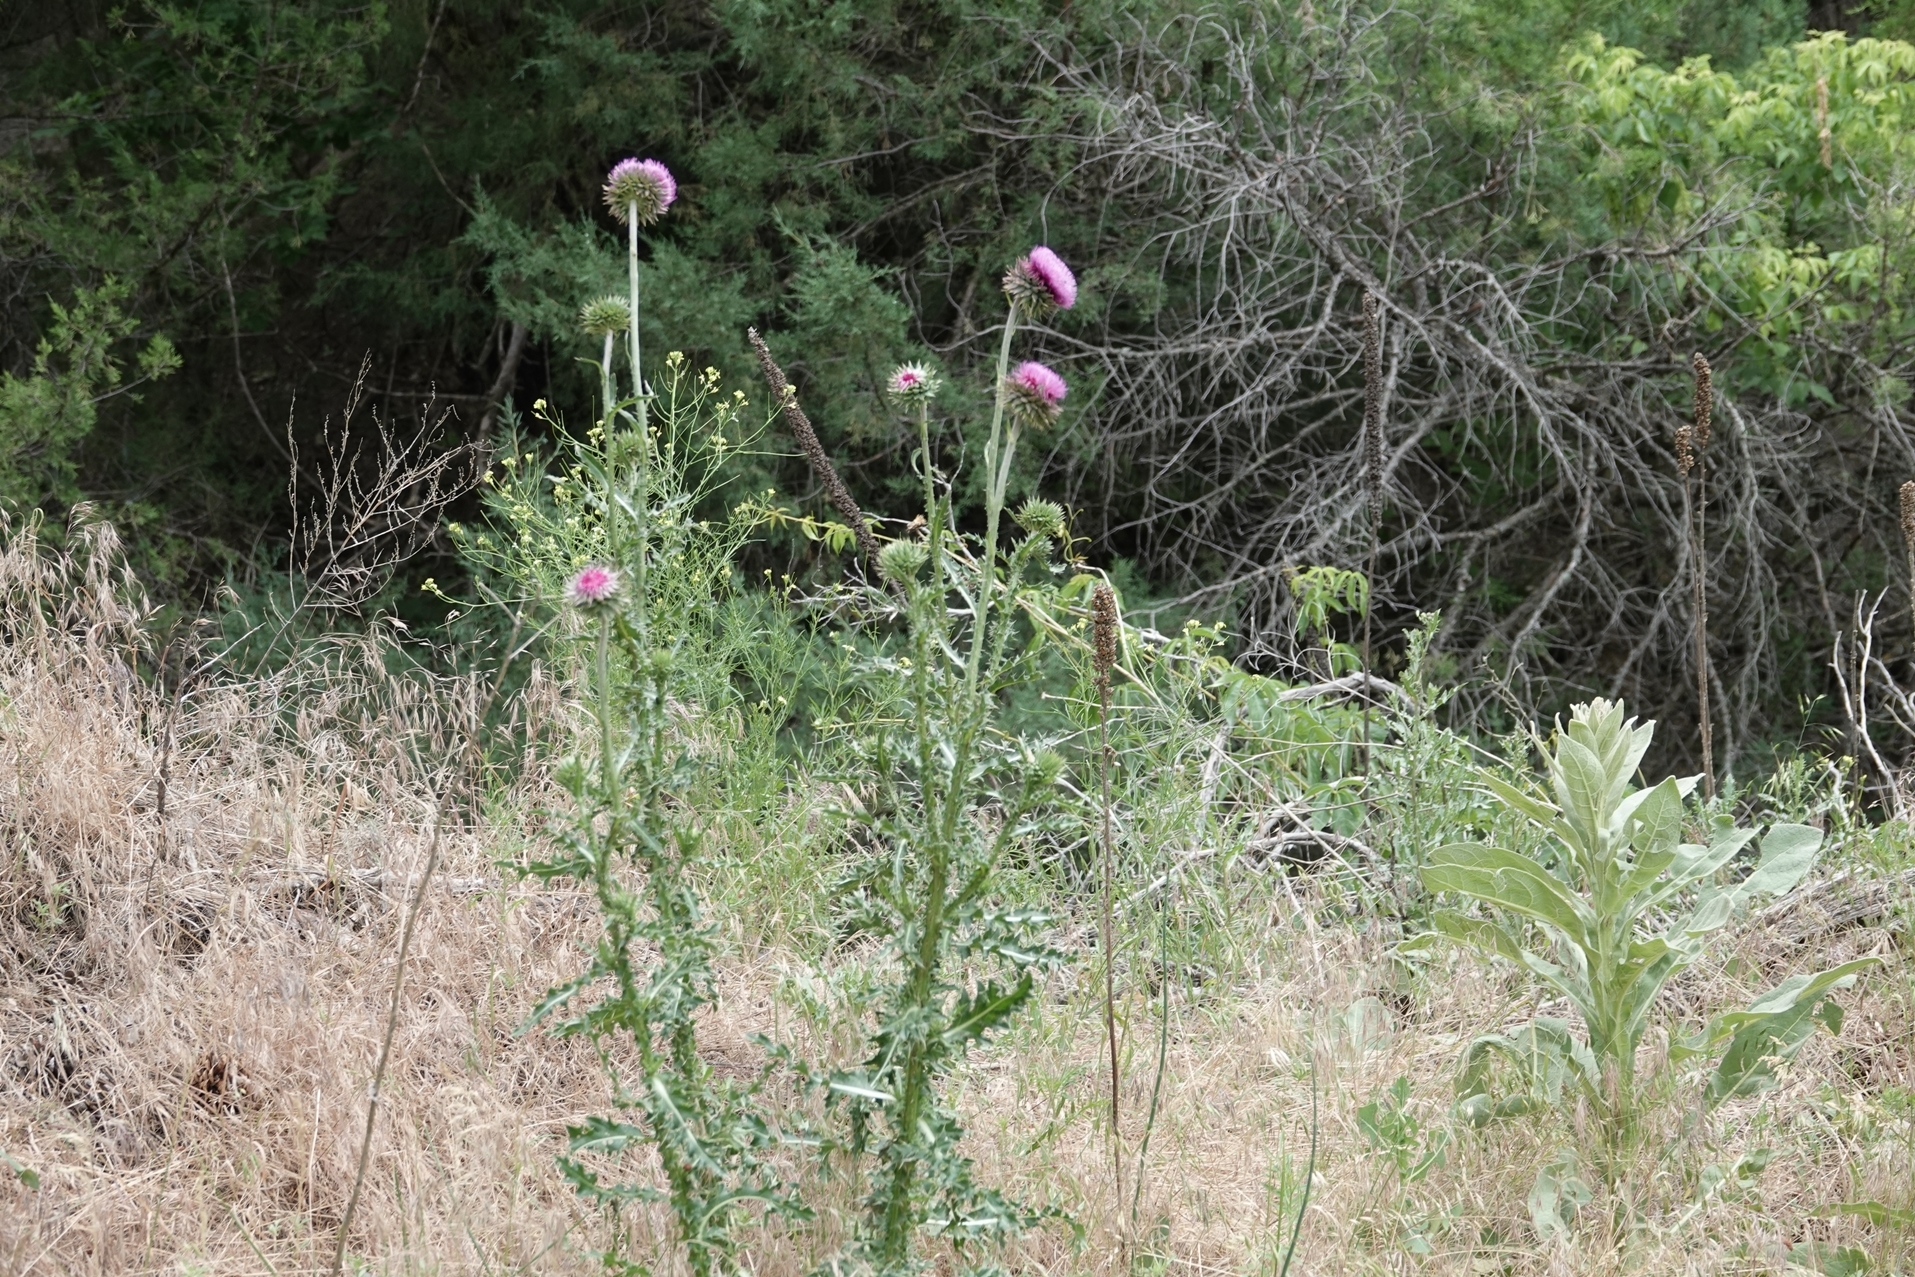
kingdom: Plantae
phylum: Tracheophyta
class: Magnoliopsida
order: Asterales
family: Asteraceae
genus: Carduus
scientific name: Carduus nutans
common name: Musk thistle
